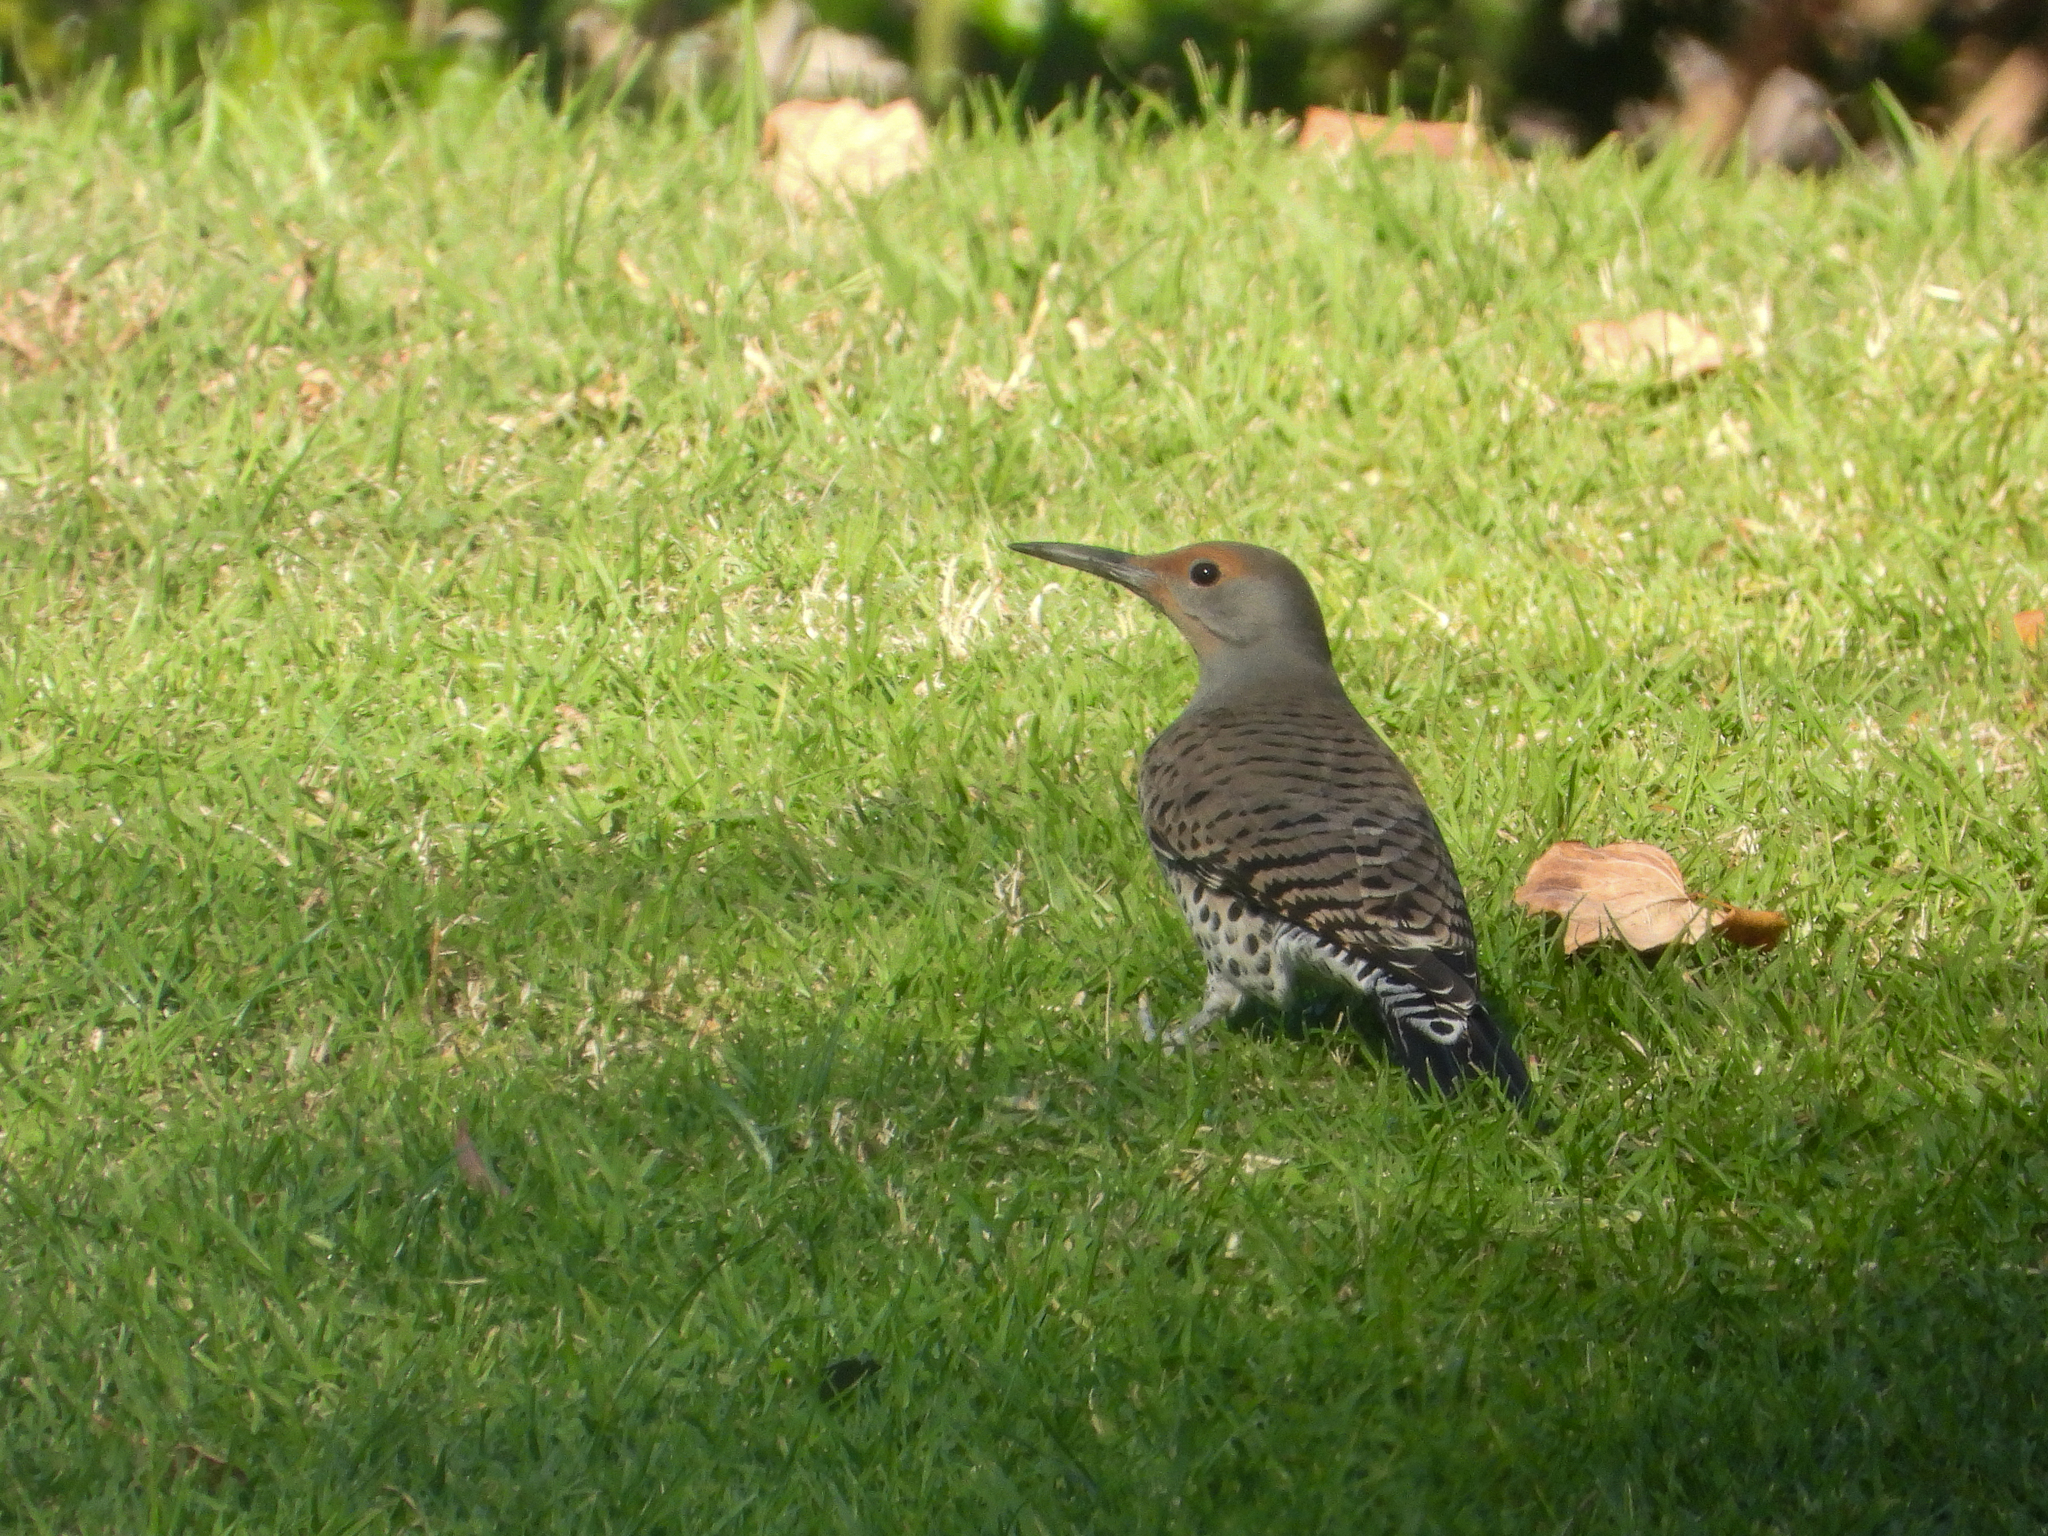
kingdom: Animalia
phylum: Chordata
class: Aves
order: Piciformes
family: Picidae
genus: Colaptes
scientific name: Colaptes auratus
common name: Northern flicker
